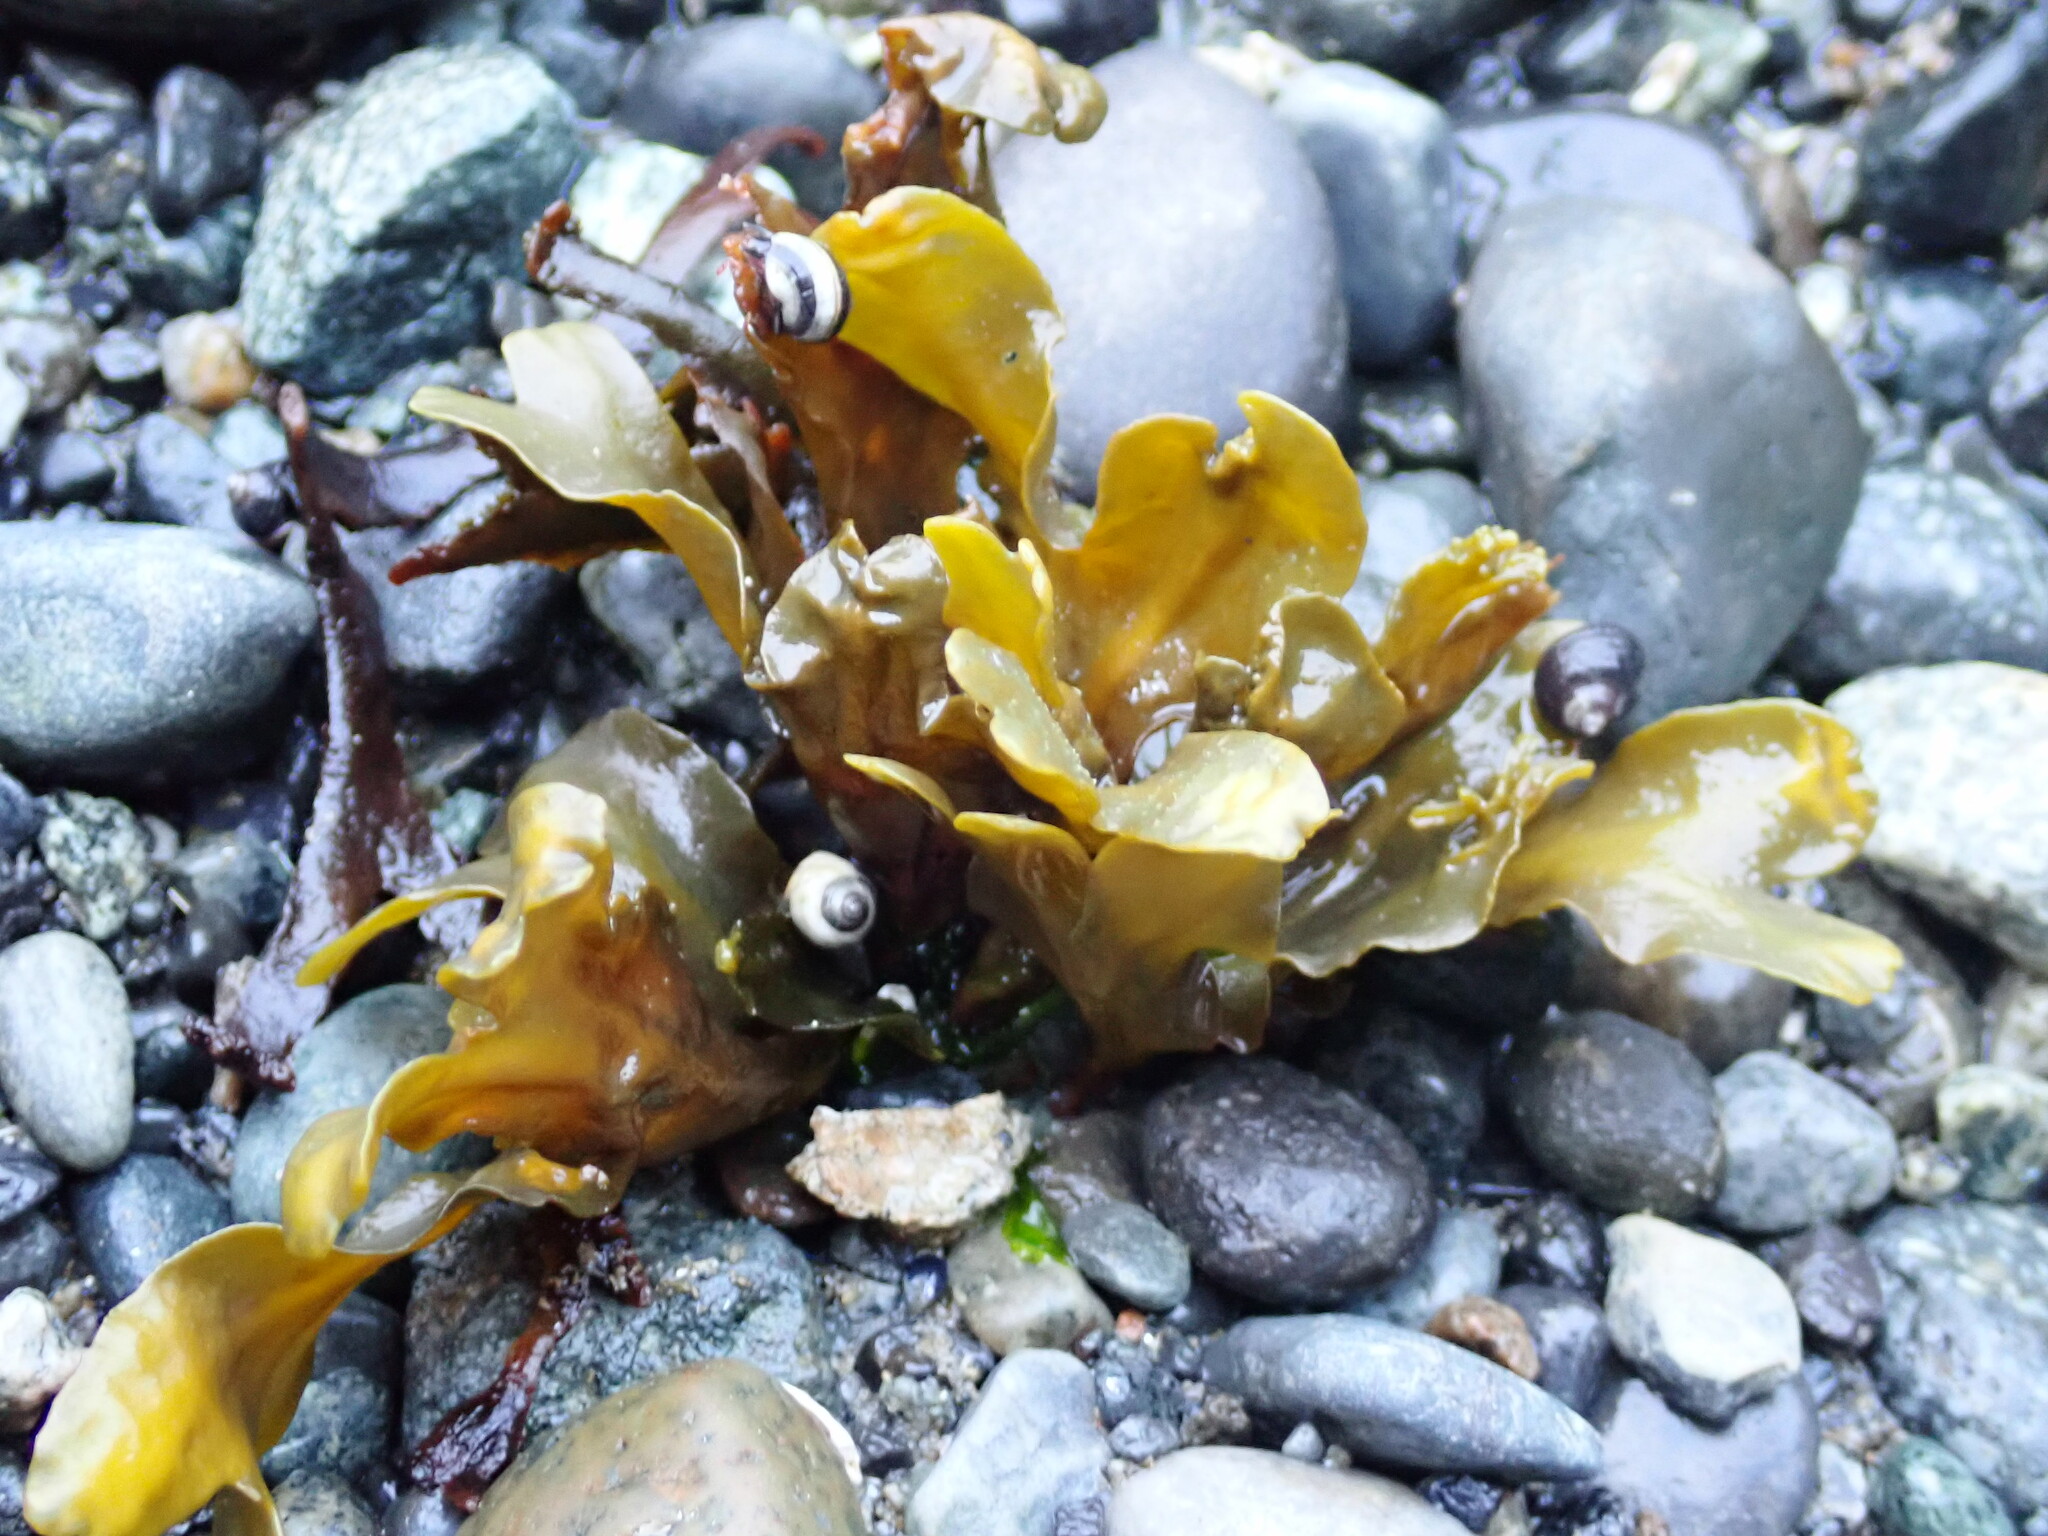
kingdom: Chromista
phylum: Ochrophyta
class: Phaeophyceae
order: Fucales
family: Fucaceae
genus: Fucus
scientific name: Fucus distichus
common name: Rockweed
